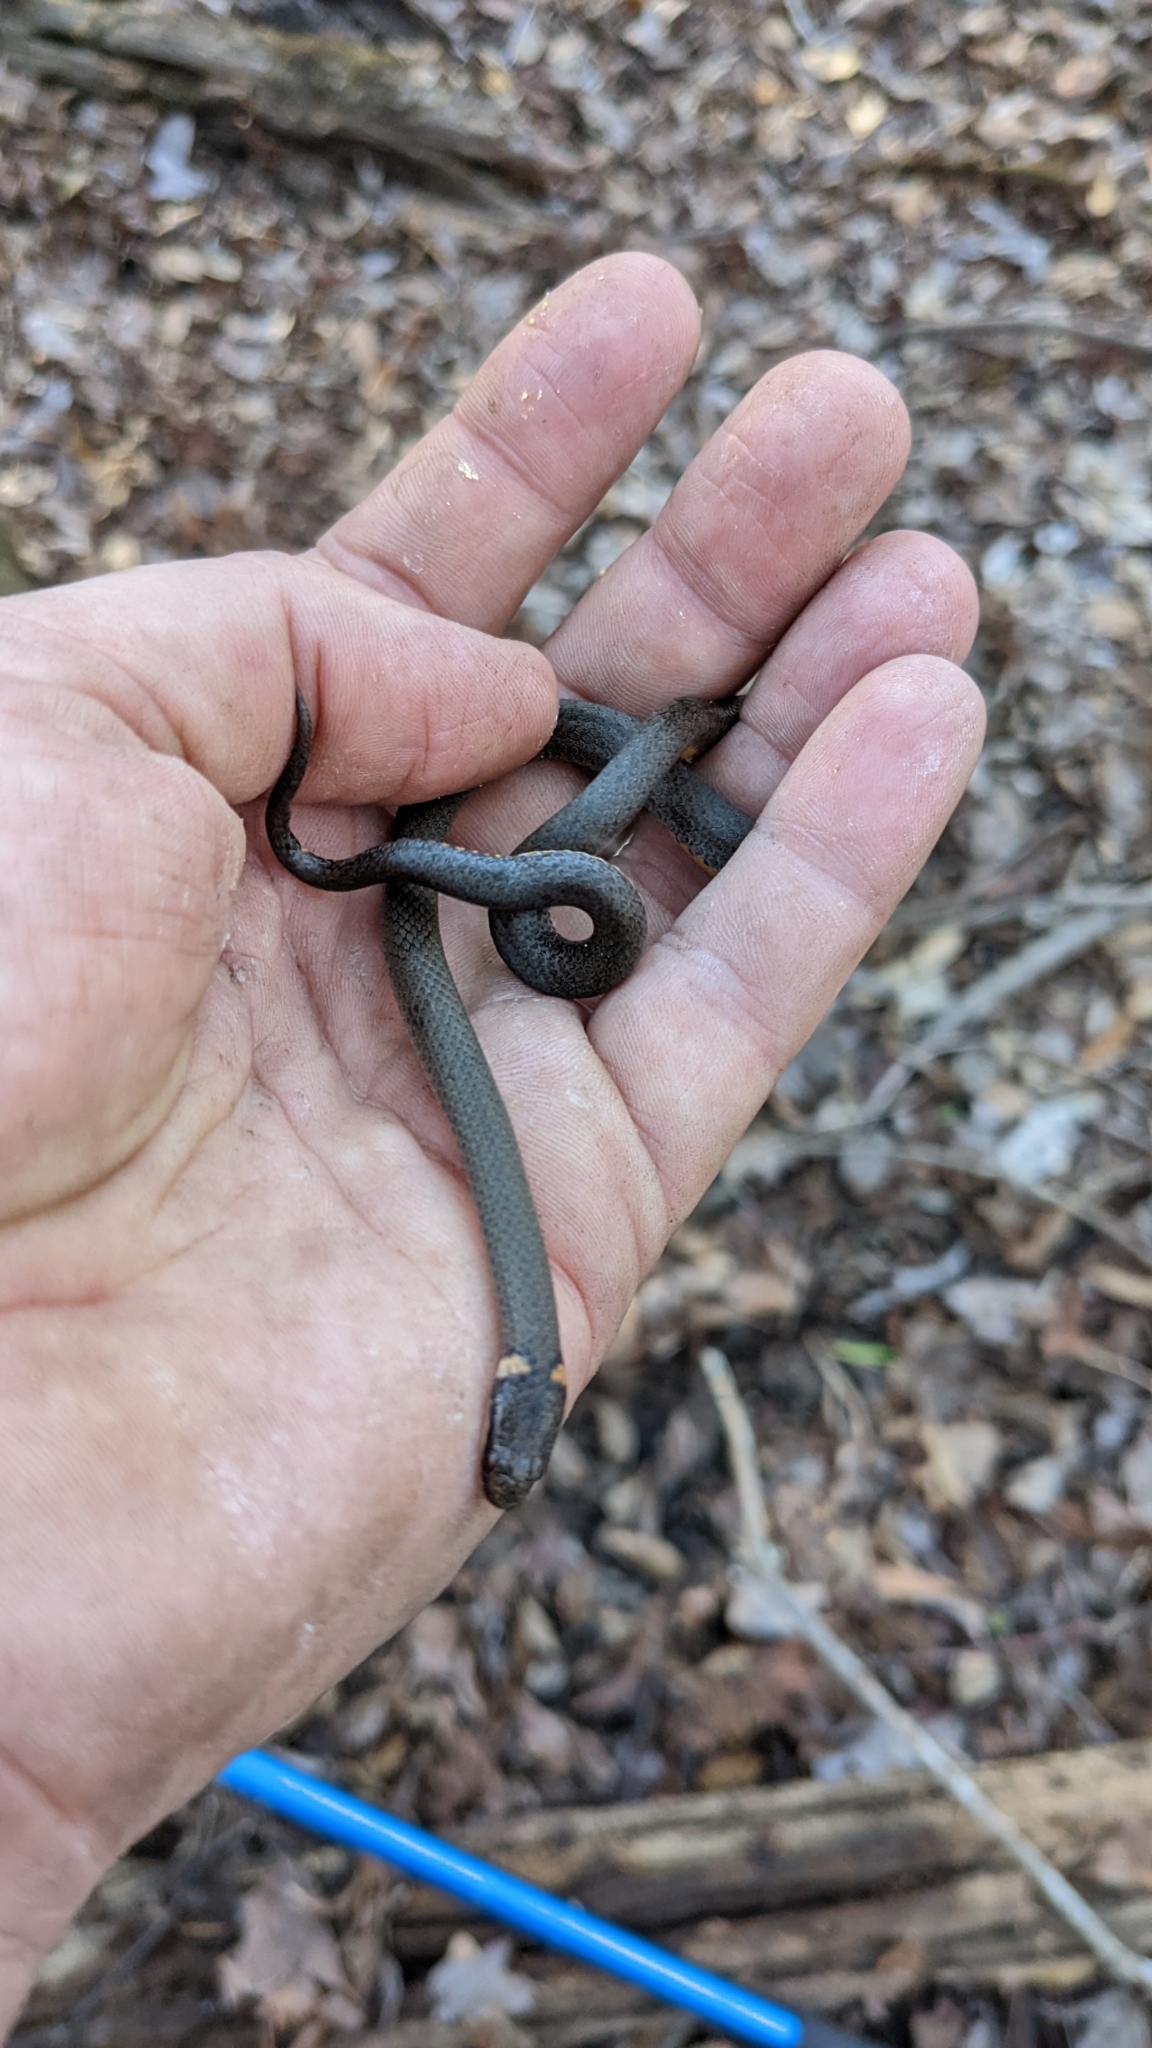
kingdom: Animalia
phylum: Chordata
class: Squamata
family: Colubridae
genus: Diadophis
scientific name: Diadophis punctatus
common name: Ringneck snake
